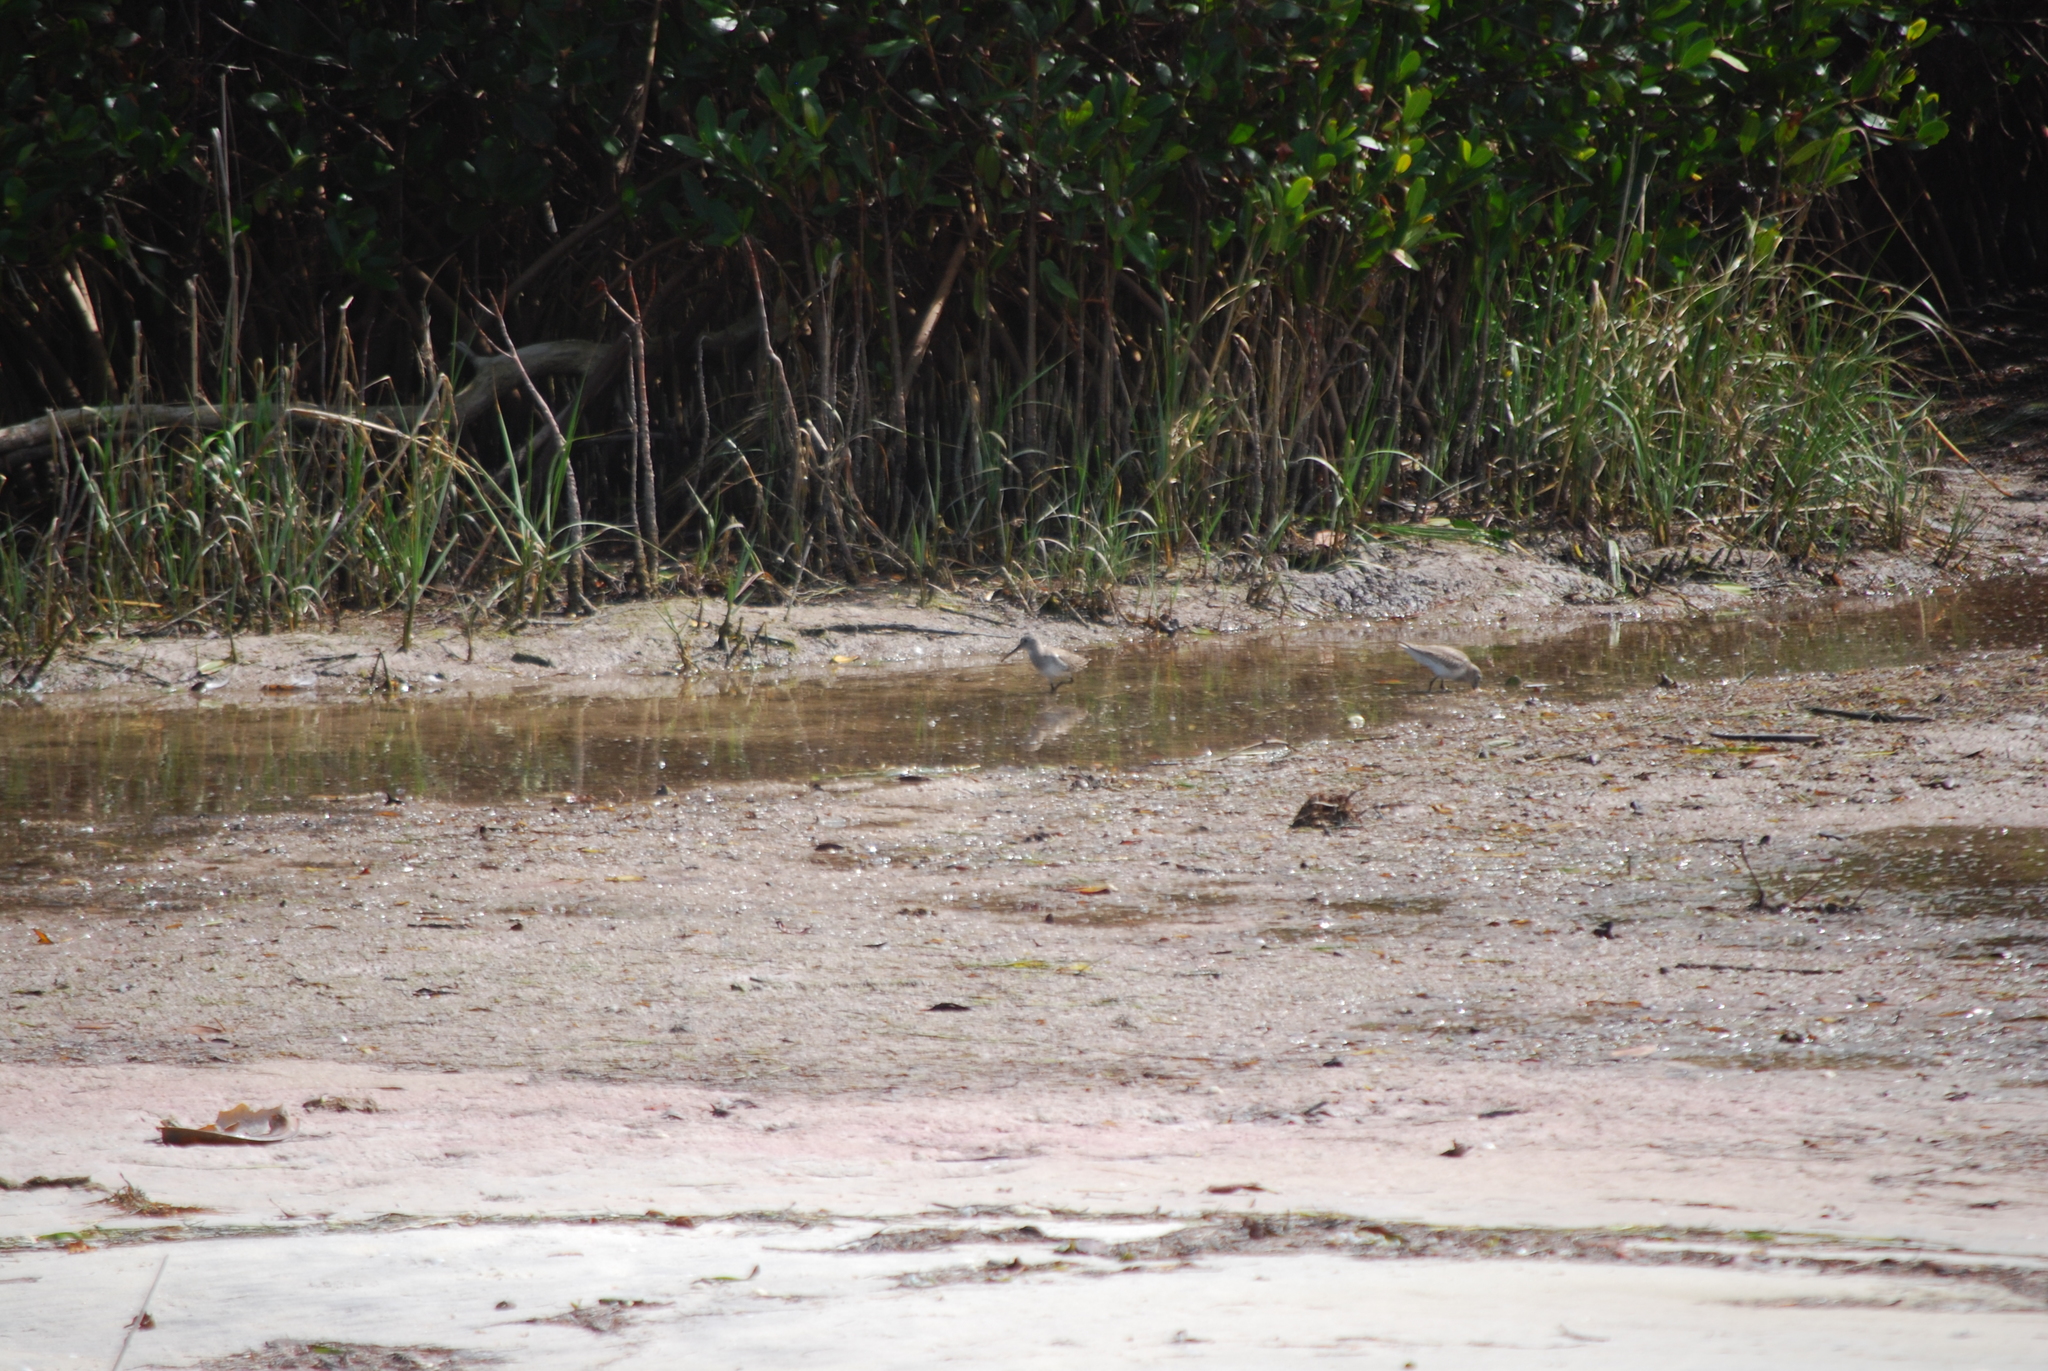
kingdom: Animalia
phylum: Chordata
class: Aves
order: Charadriiformes
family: Scolopacidae
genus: Calidris
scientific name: Calidris alpina
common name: Dunlin
